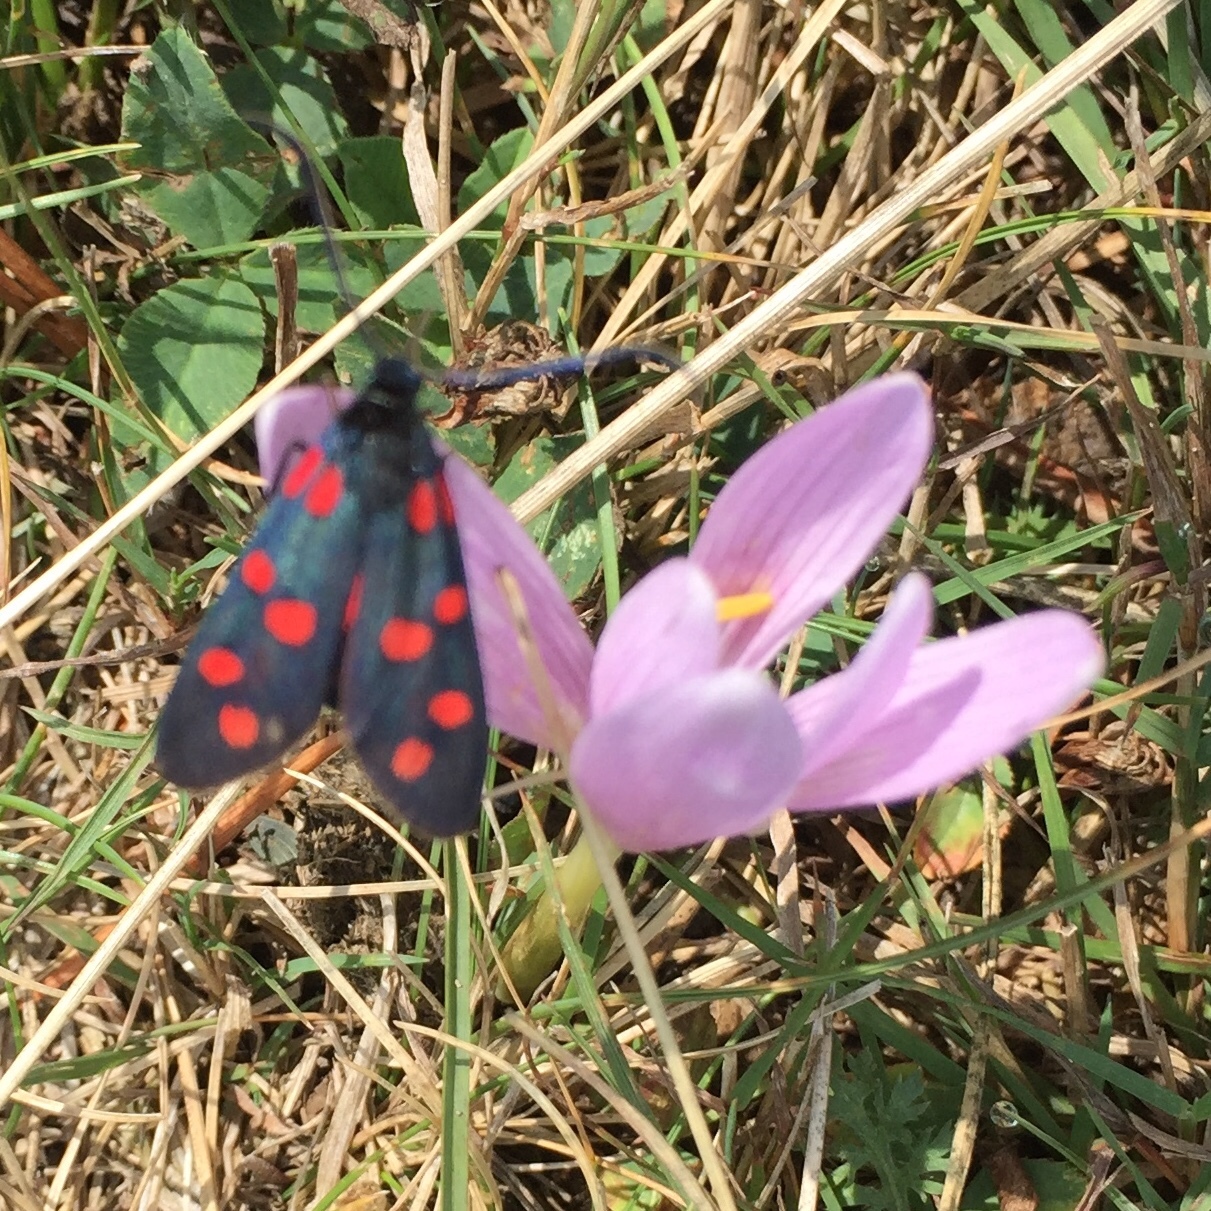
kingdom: Animalia
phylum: Arthropoda
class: Insecta
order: Lepidoptera
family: Zygaenidae
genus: Zygaena
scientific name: Zygaena filipendulae
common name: Six-spot burnet
